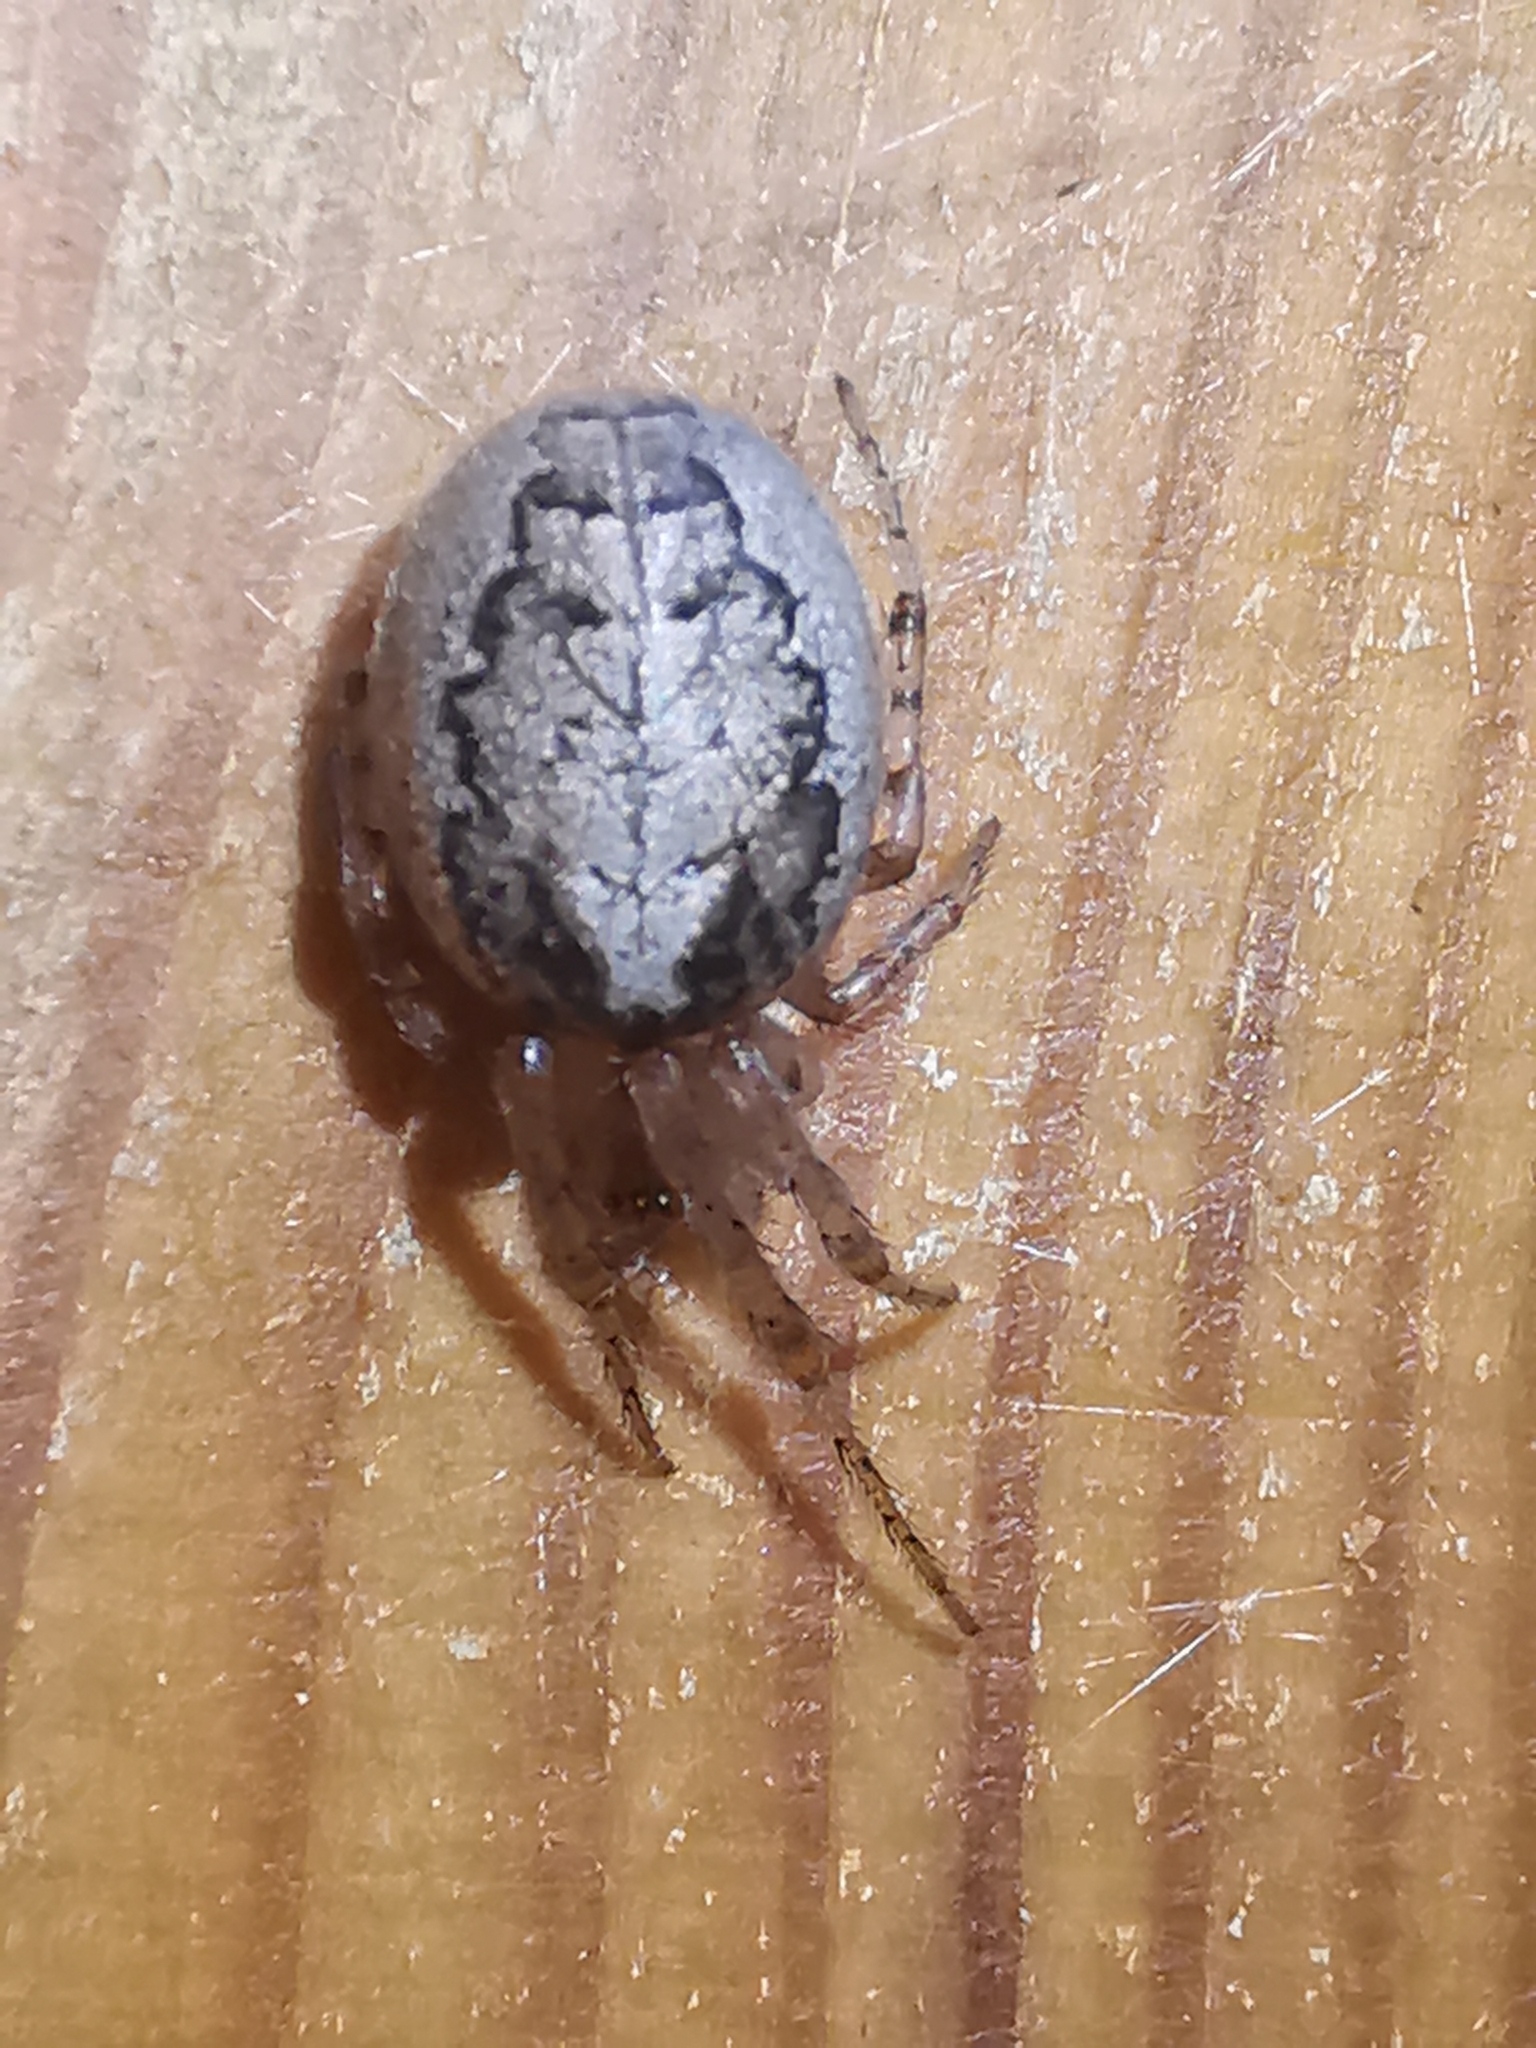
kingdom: Animalia
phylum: Arthropoda
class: Arachnida
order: Araneae
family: Araneidae
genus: Zygiella
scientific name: Zygiella x-notata
